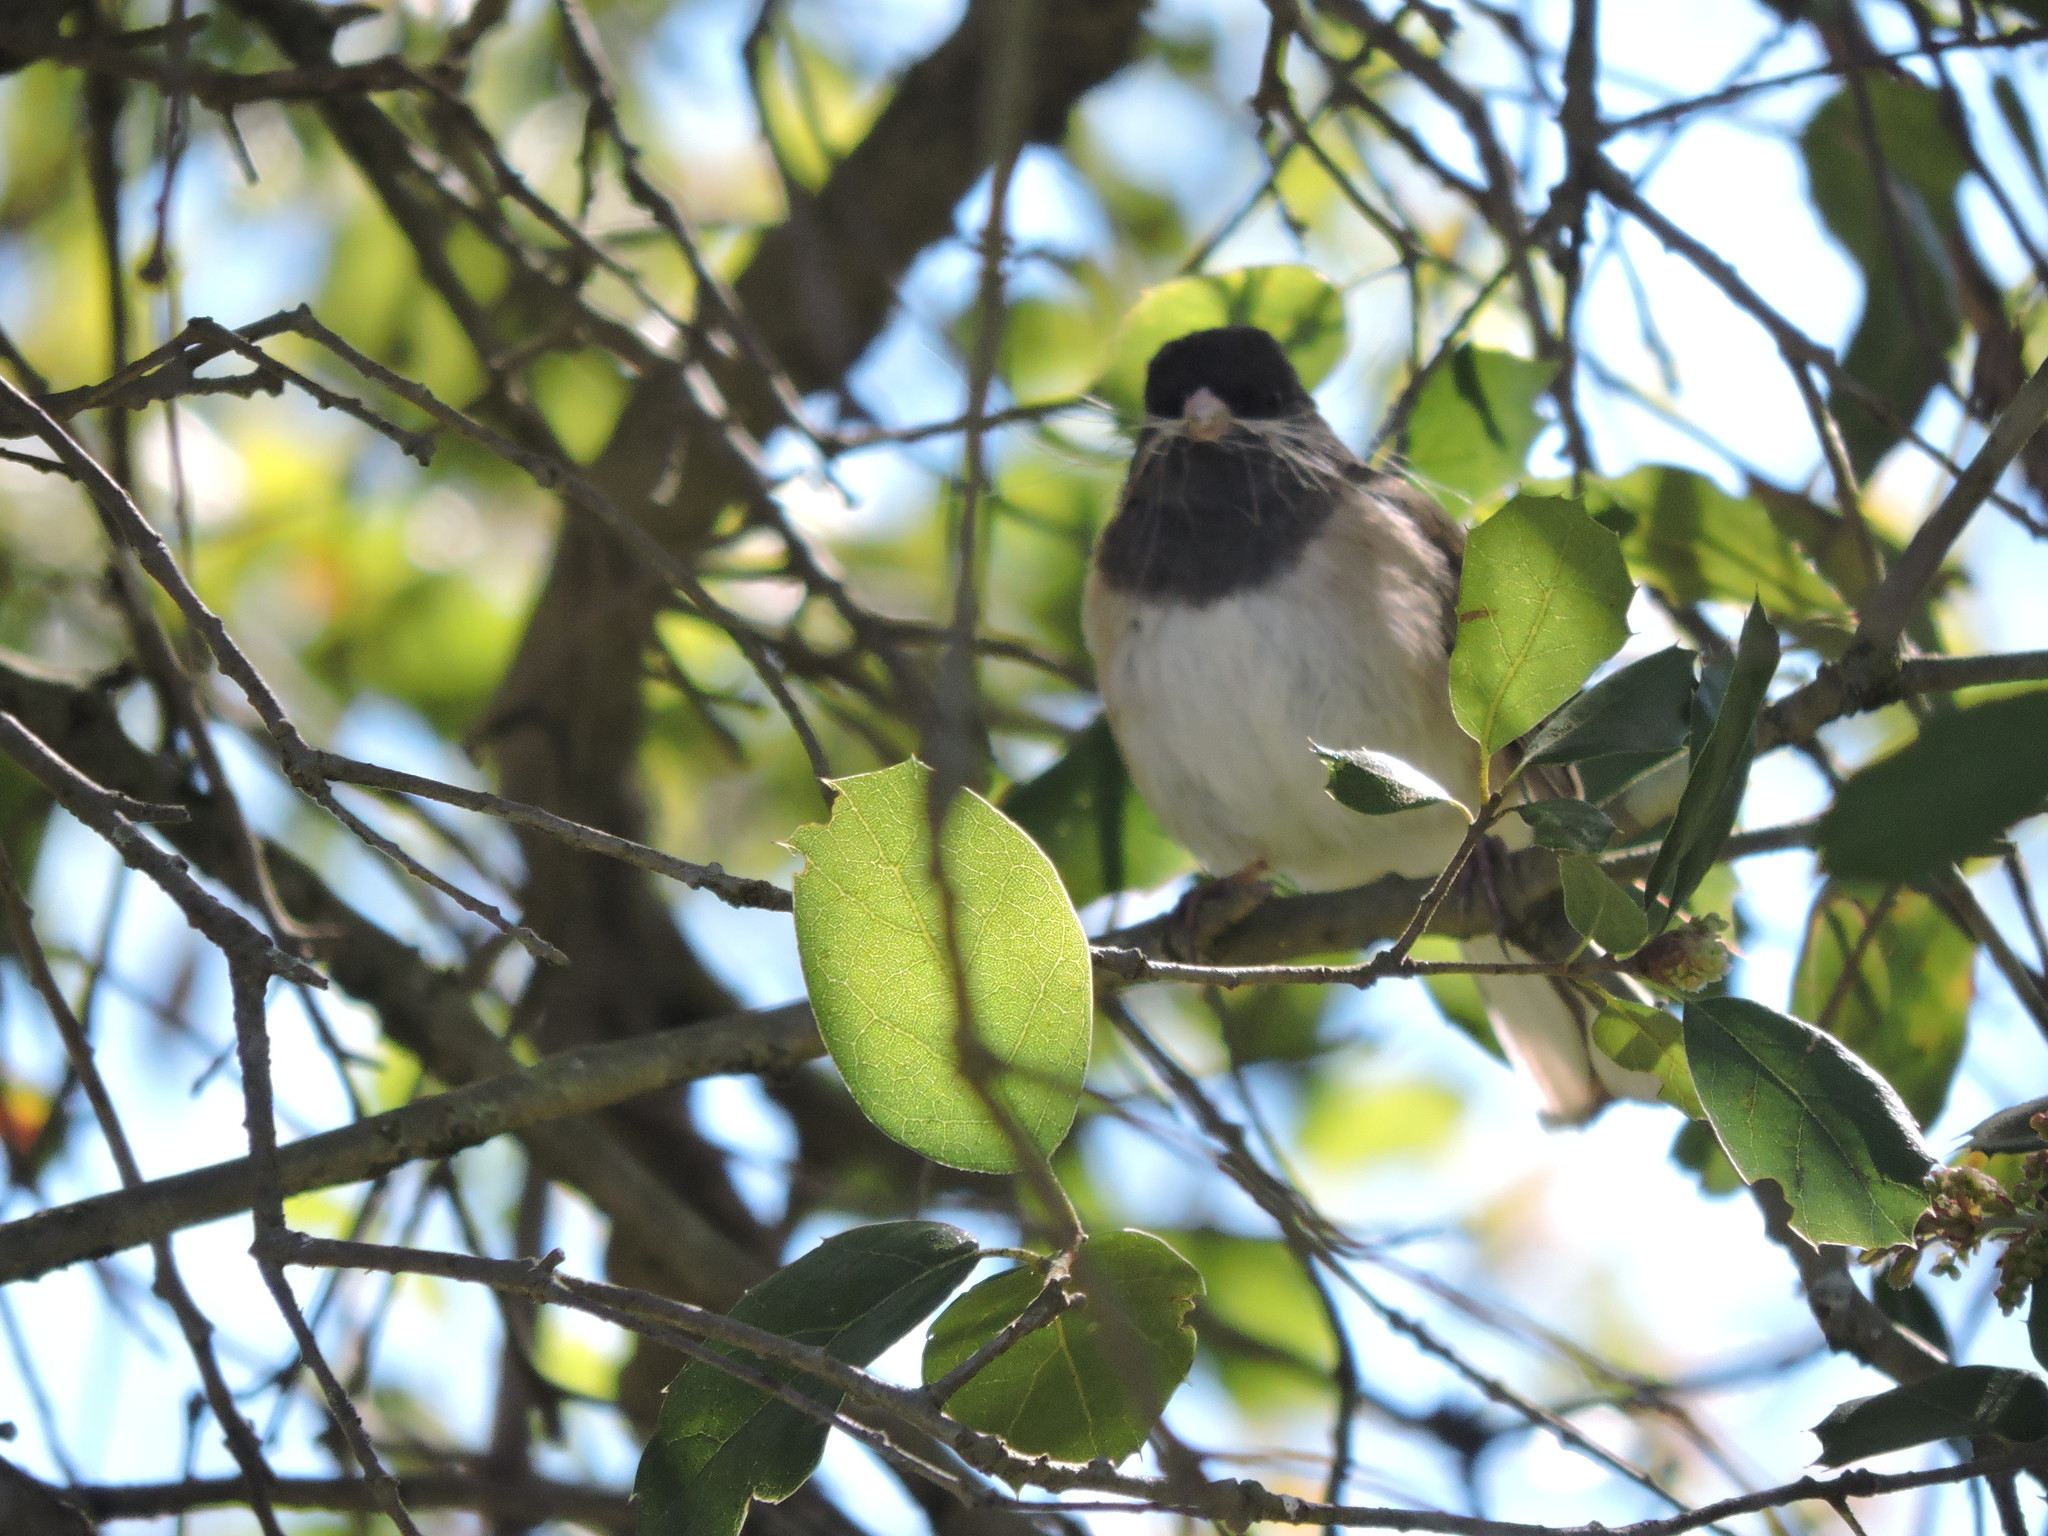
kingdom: Animalia
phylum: Chordata
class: Aves
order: Passeriformes
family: Passerellidae
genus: Junco
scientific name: Junco hyemalis
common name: Dark-eyed junco
